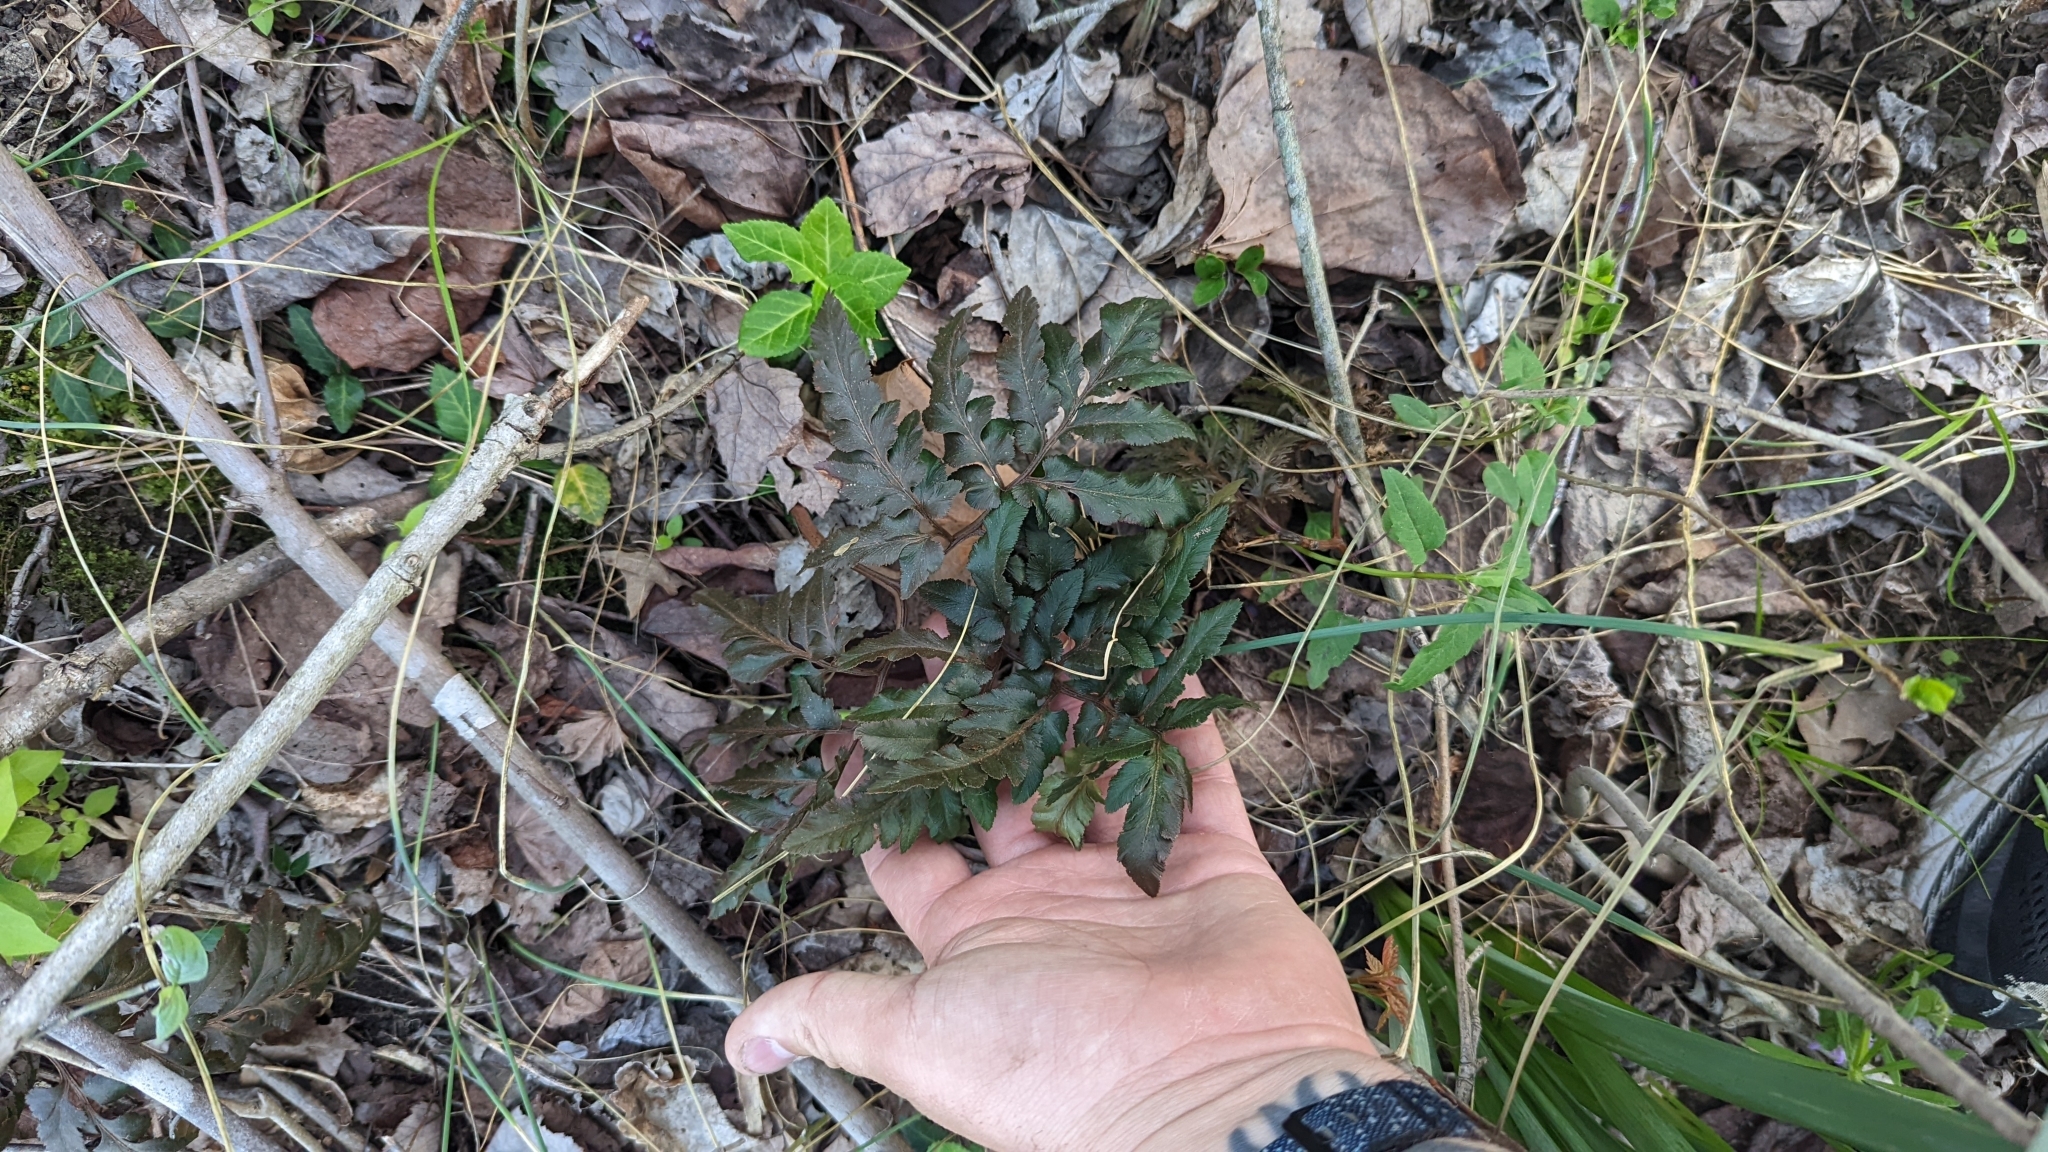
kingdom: Plantae
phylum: Tracheophyta
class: Polypodiopsida
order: Ophioglossales
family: Ophioglossaceae
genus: Sceptridium
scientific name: Sceptridium dissectum
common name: Cut-leaved grapefern
